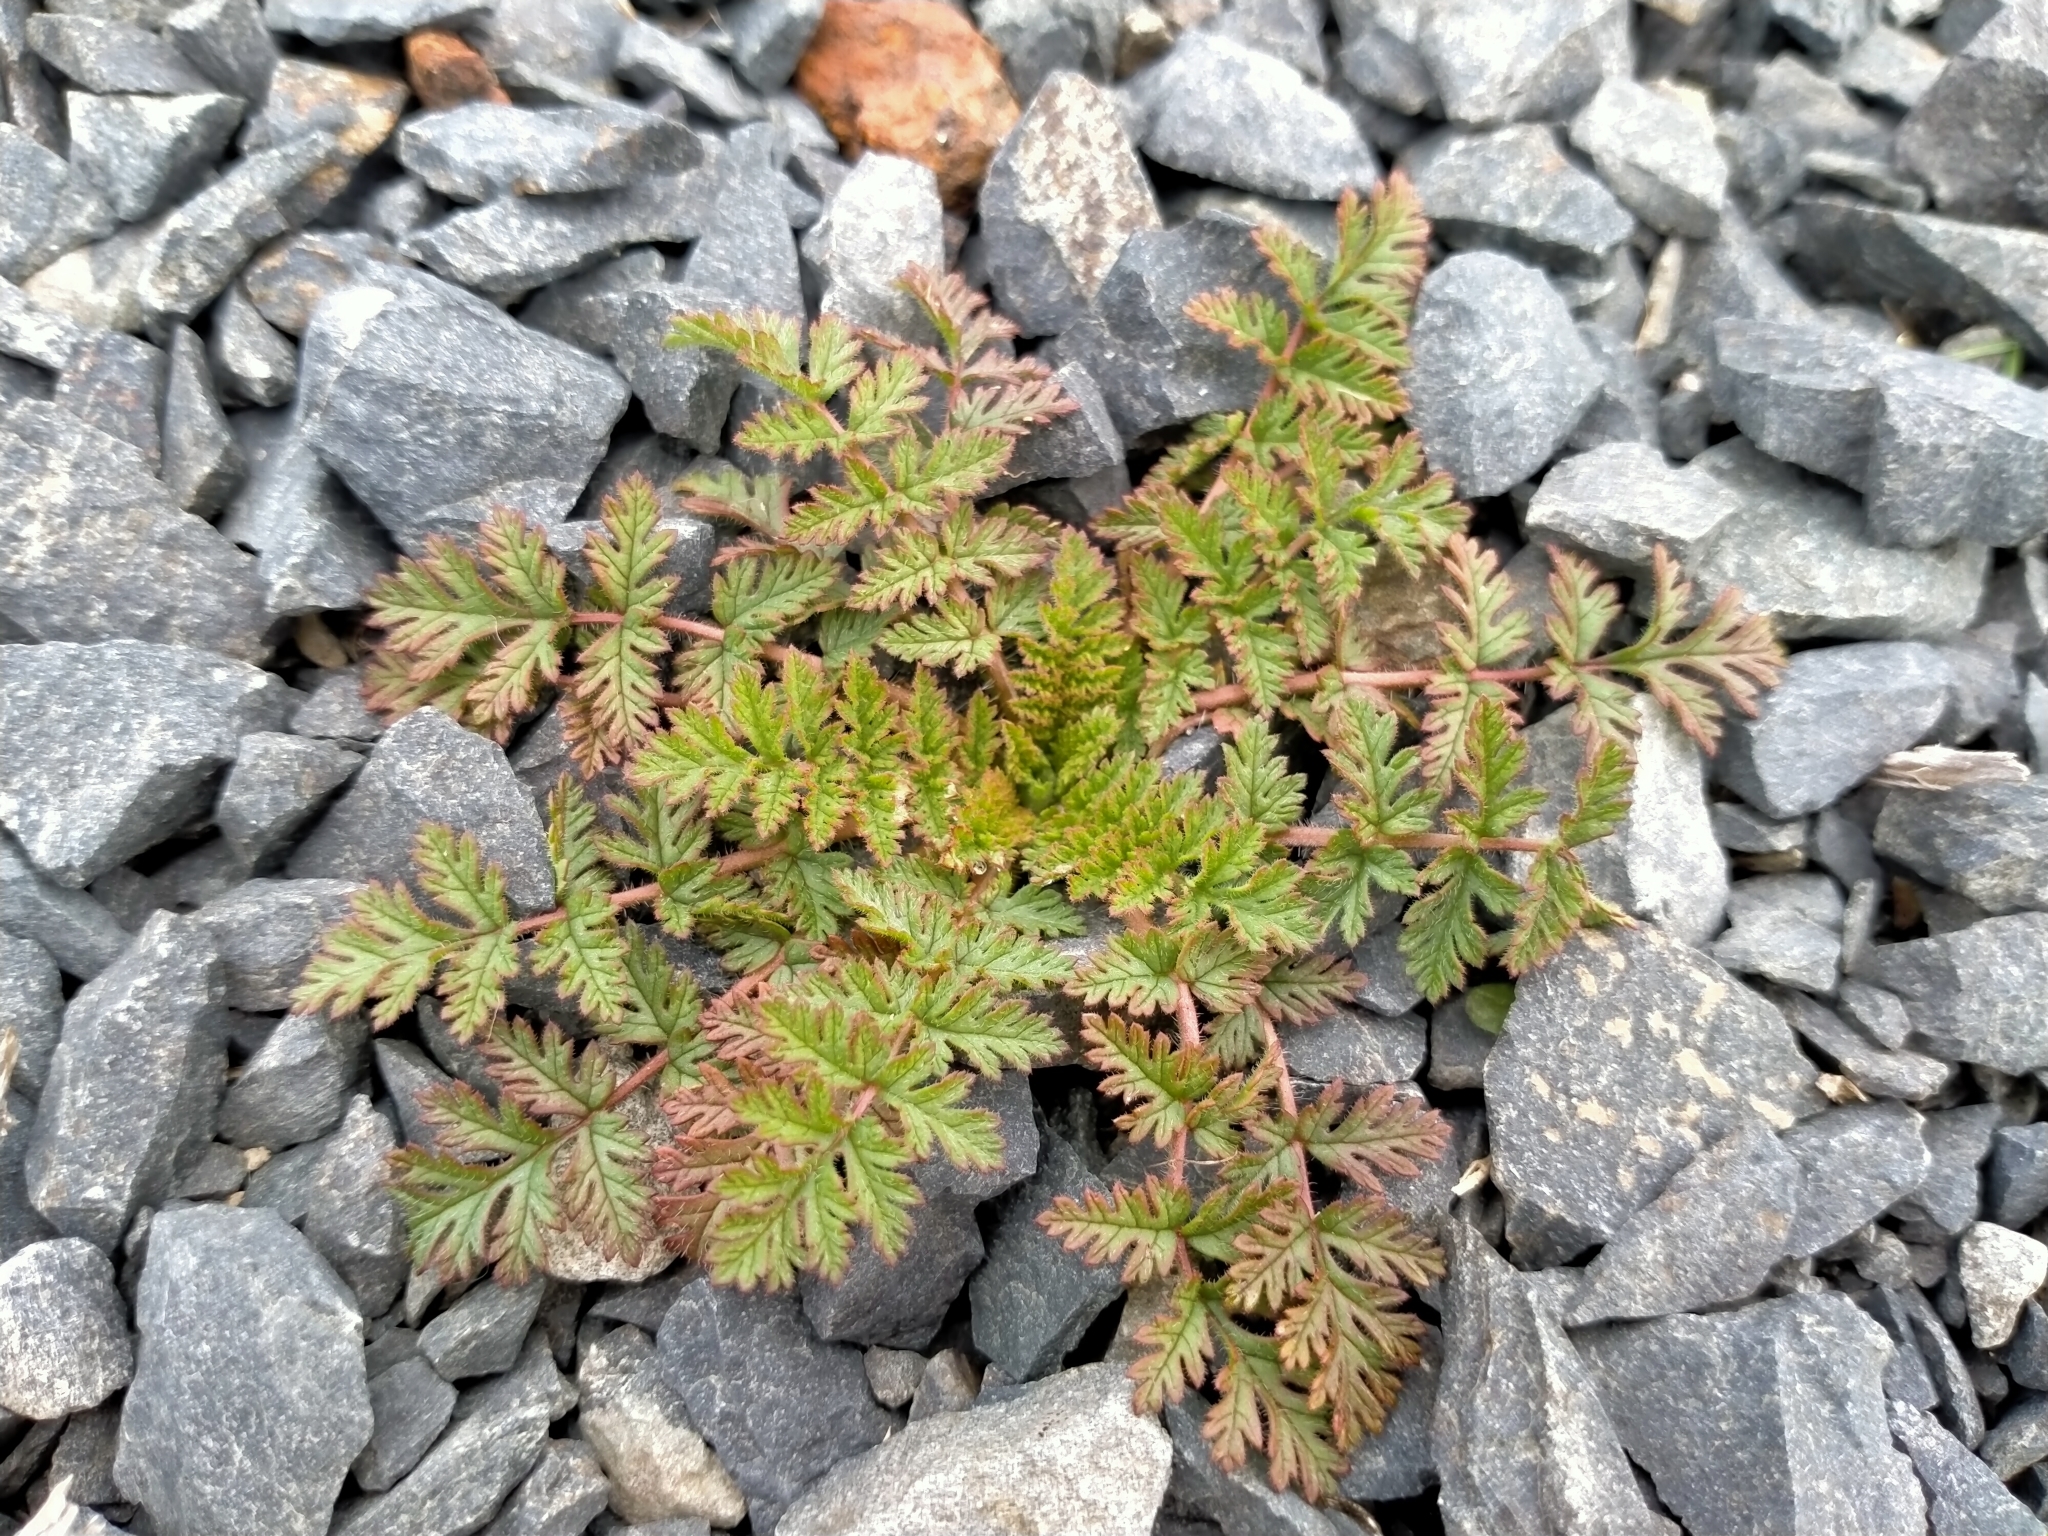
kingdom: Plantae
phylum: Tracheophyta
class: Magnoliopsida
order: Geraniales
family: Geraniaceae
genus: Erodium
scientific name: Erodium cicutarium
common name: Common stork's-bill
